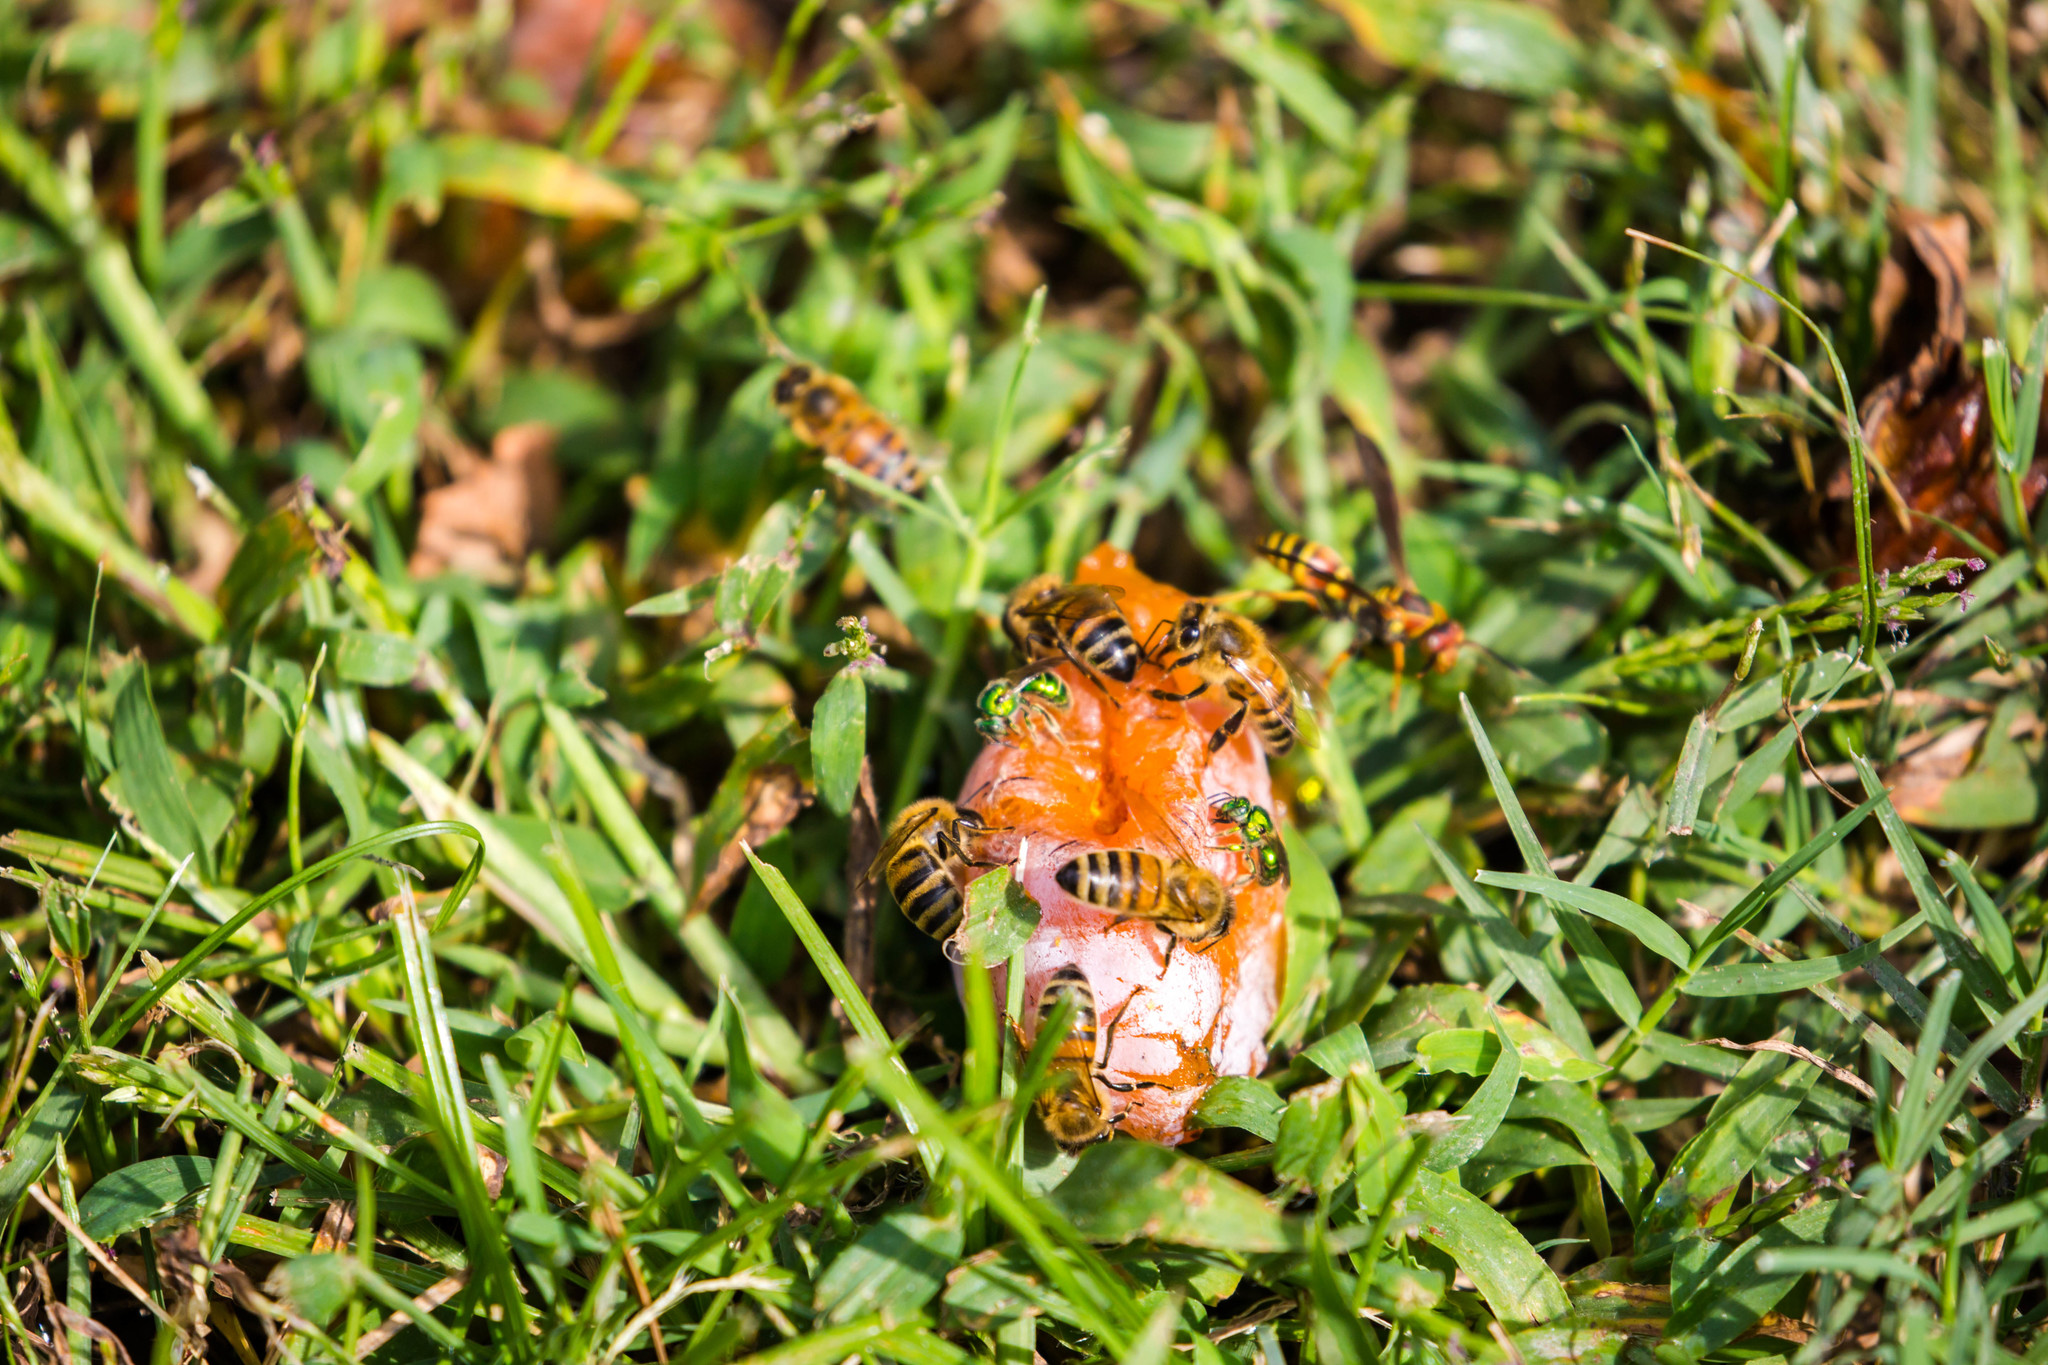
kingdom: Animalia
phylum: Arthropoda
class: Insecta
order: Hymenoptera
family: Apidae
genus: Apis
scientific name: Apis mellifera
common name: Honey bee
